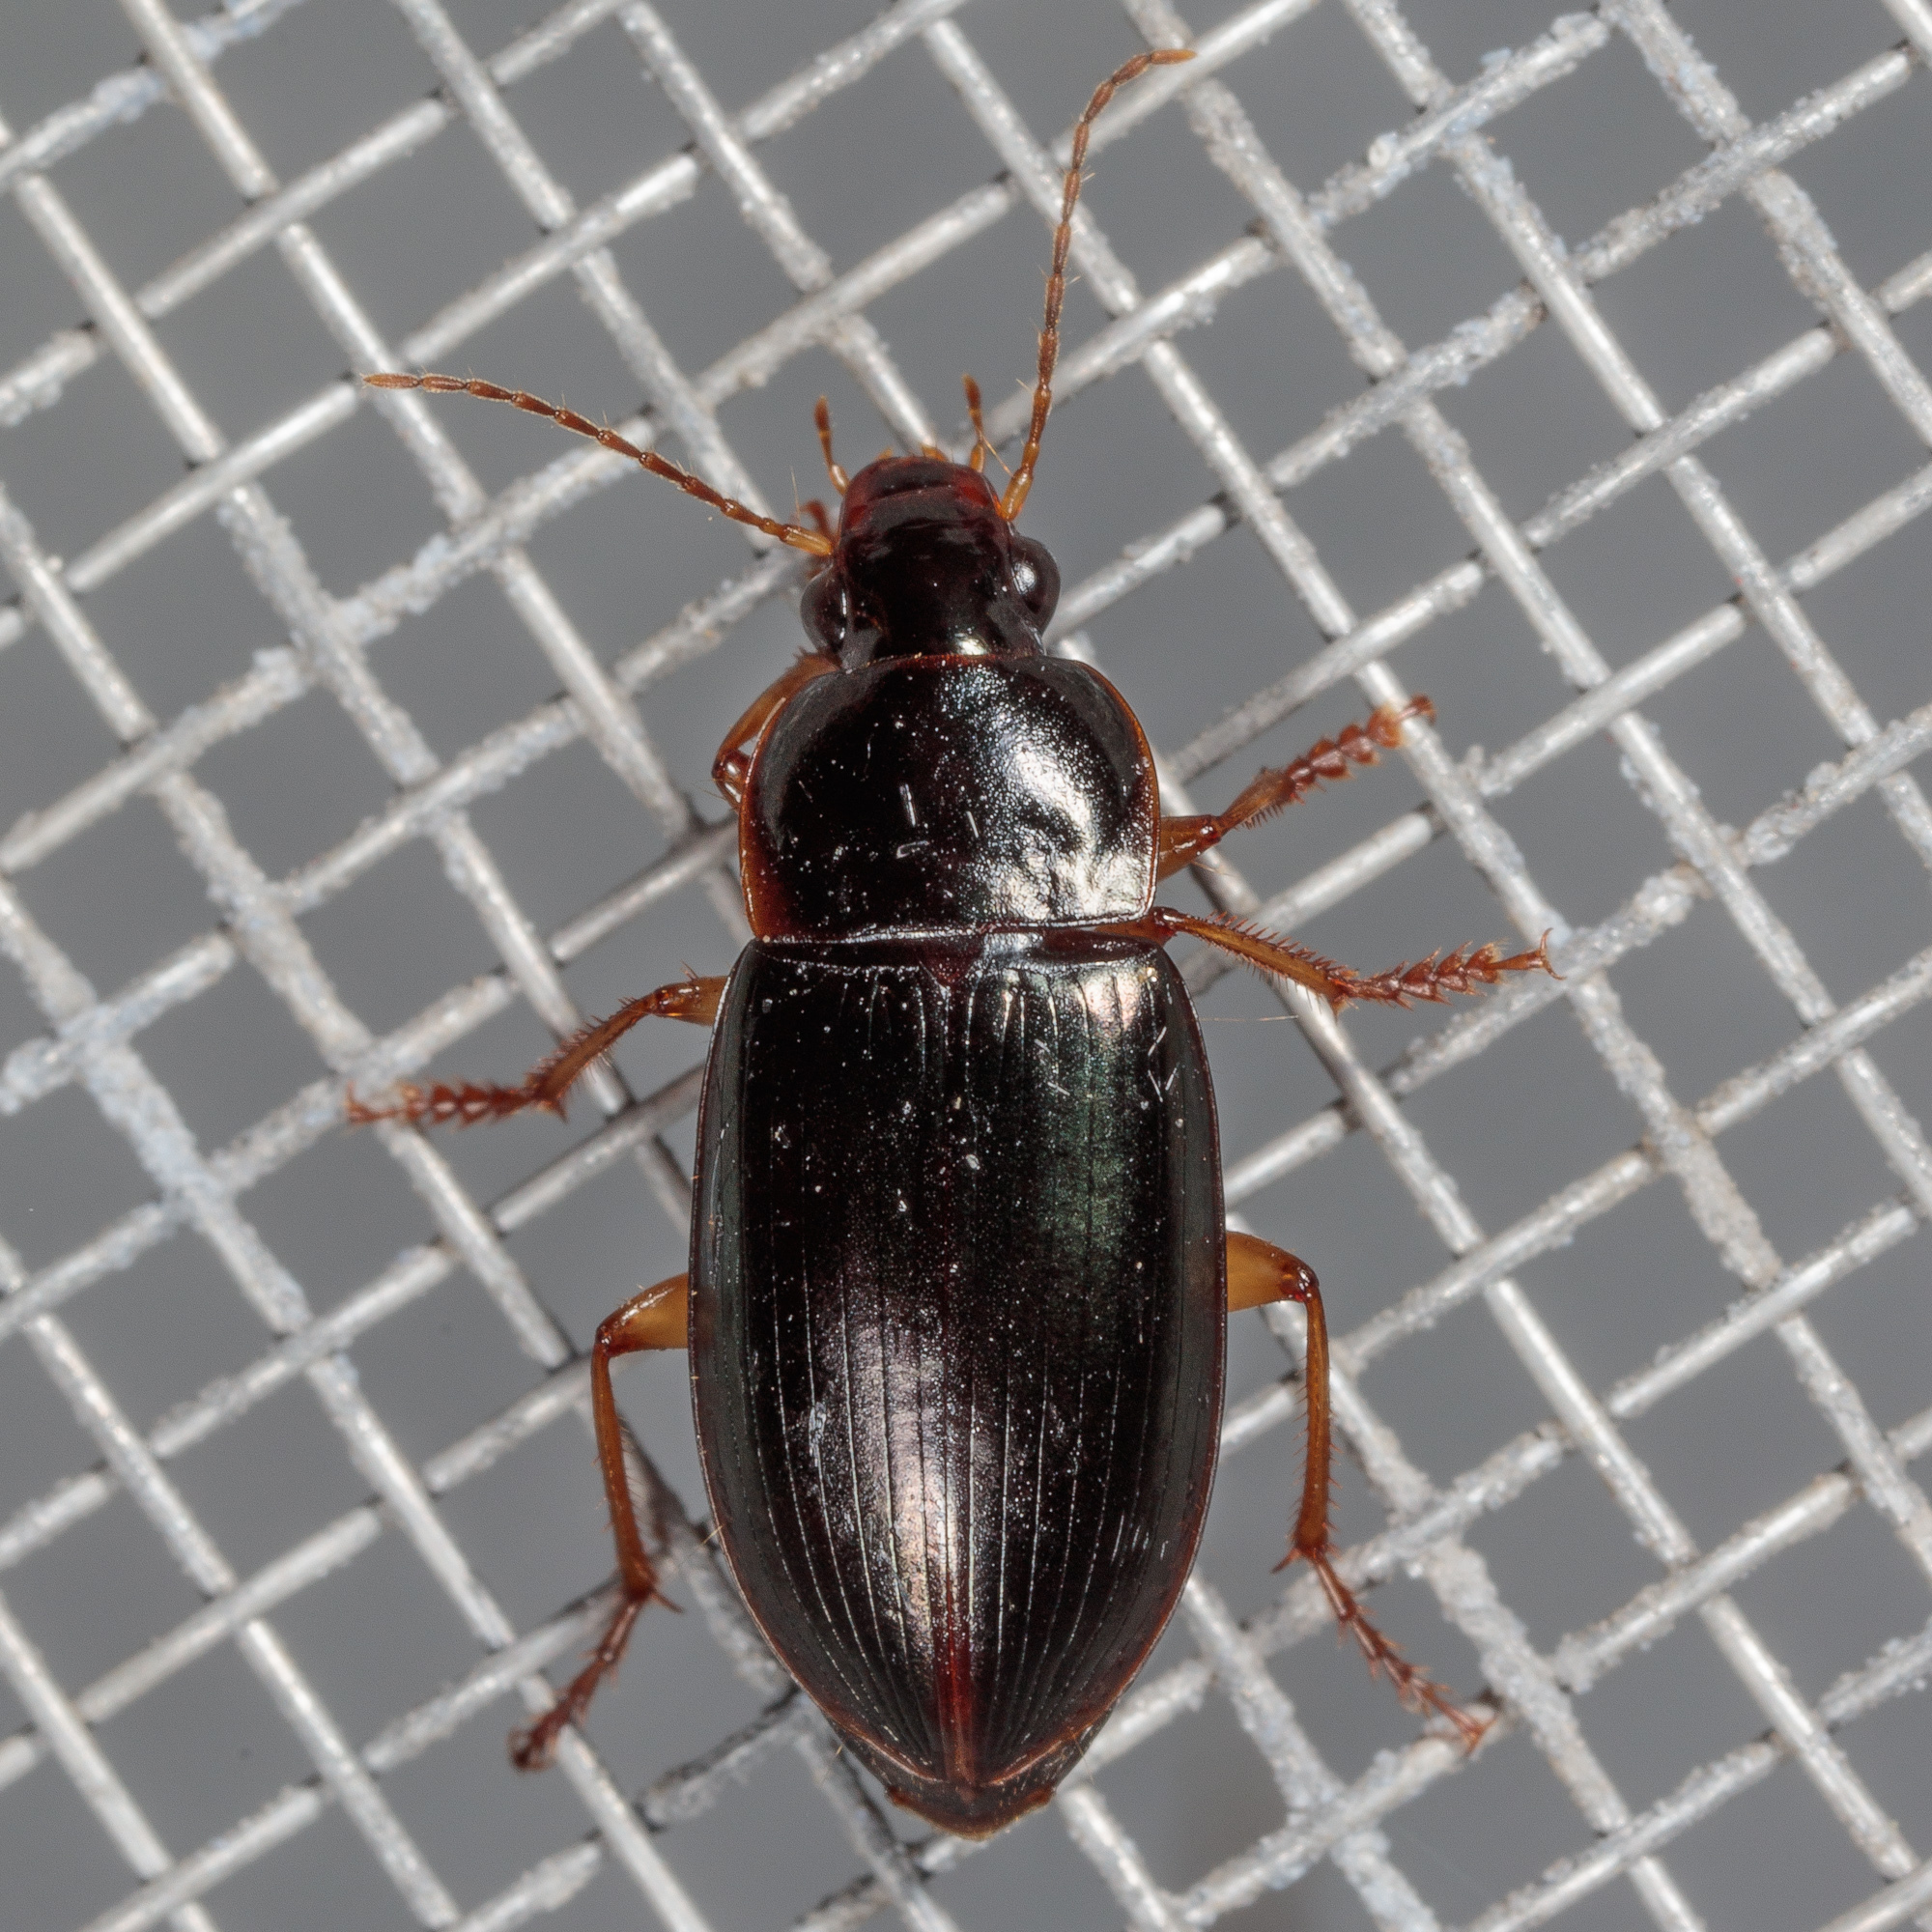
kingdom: Animalia
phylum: Arthropoda
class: Insecta
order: Coleoptera
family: Carabidae
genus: Notiobia
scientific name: Notiobia terminata
